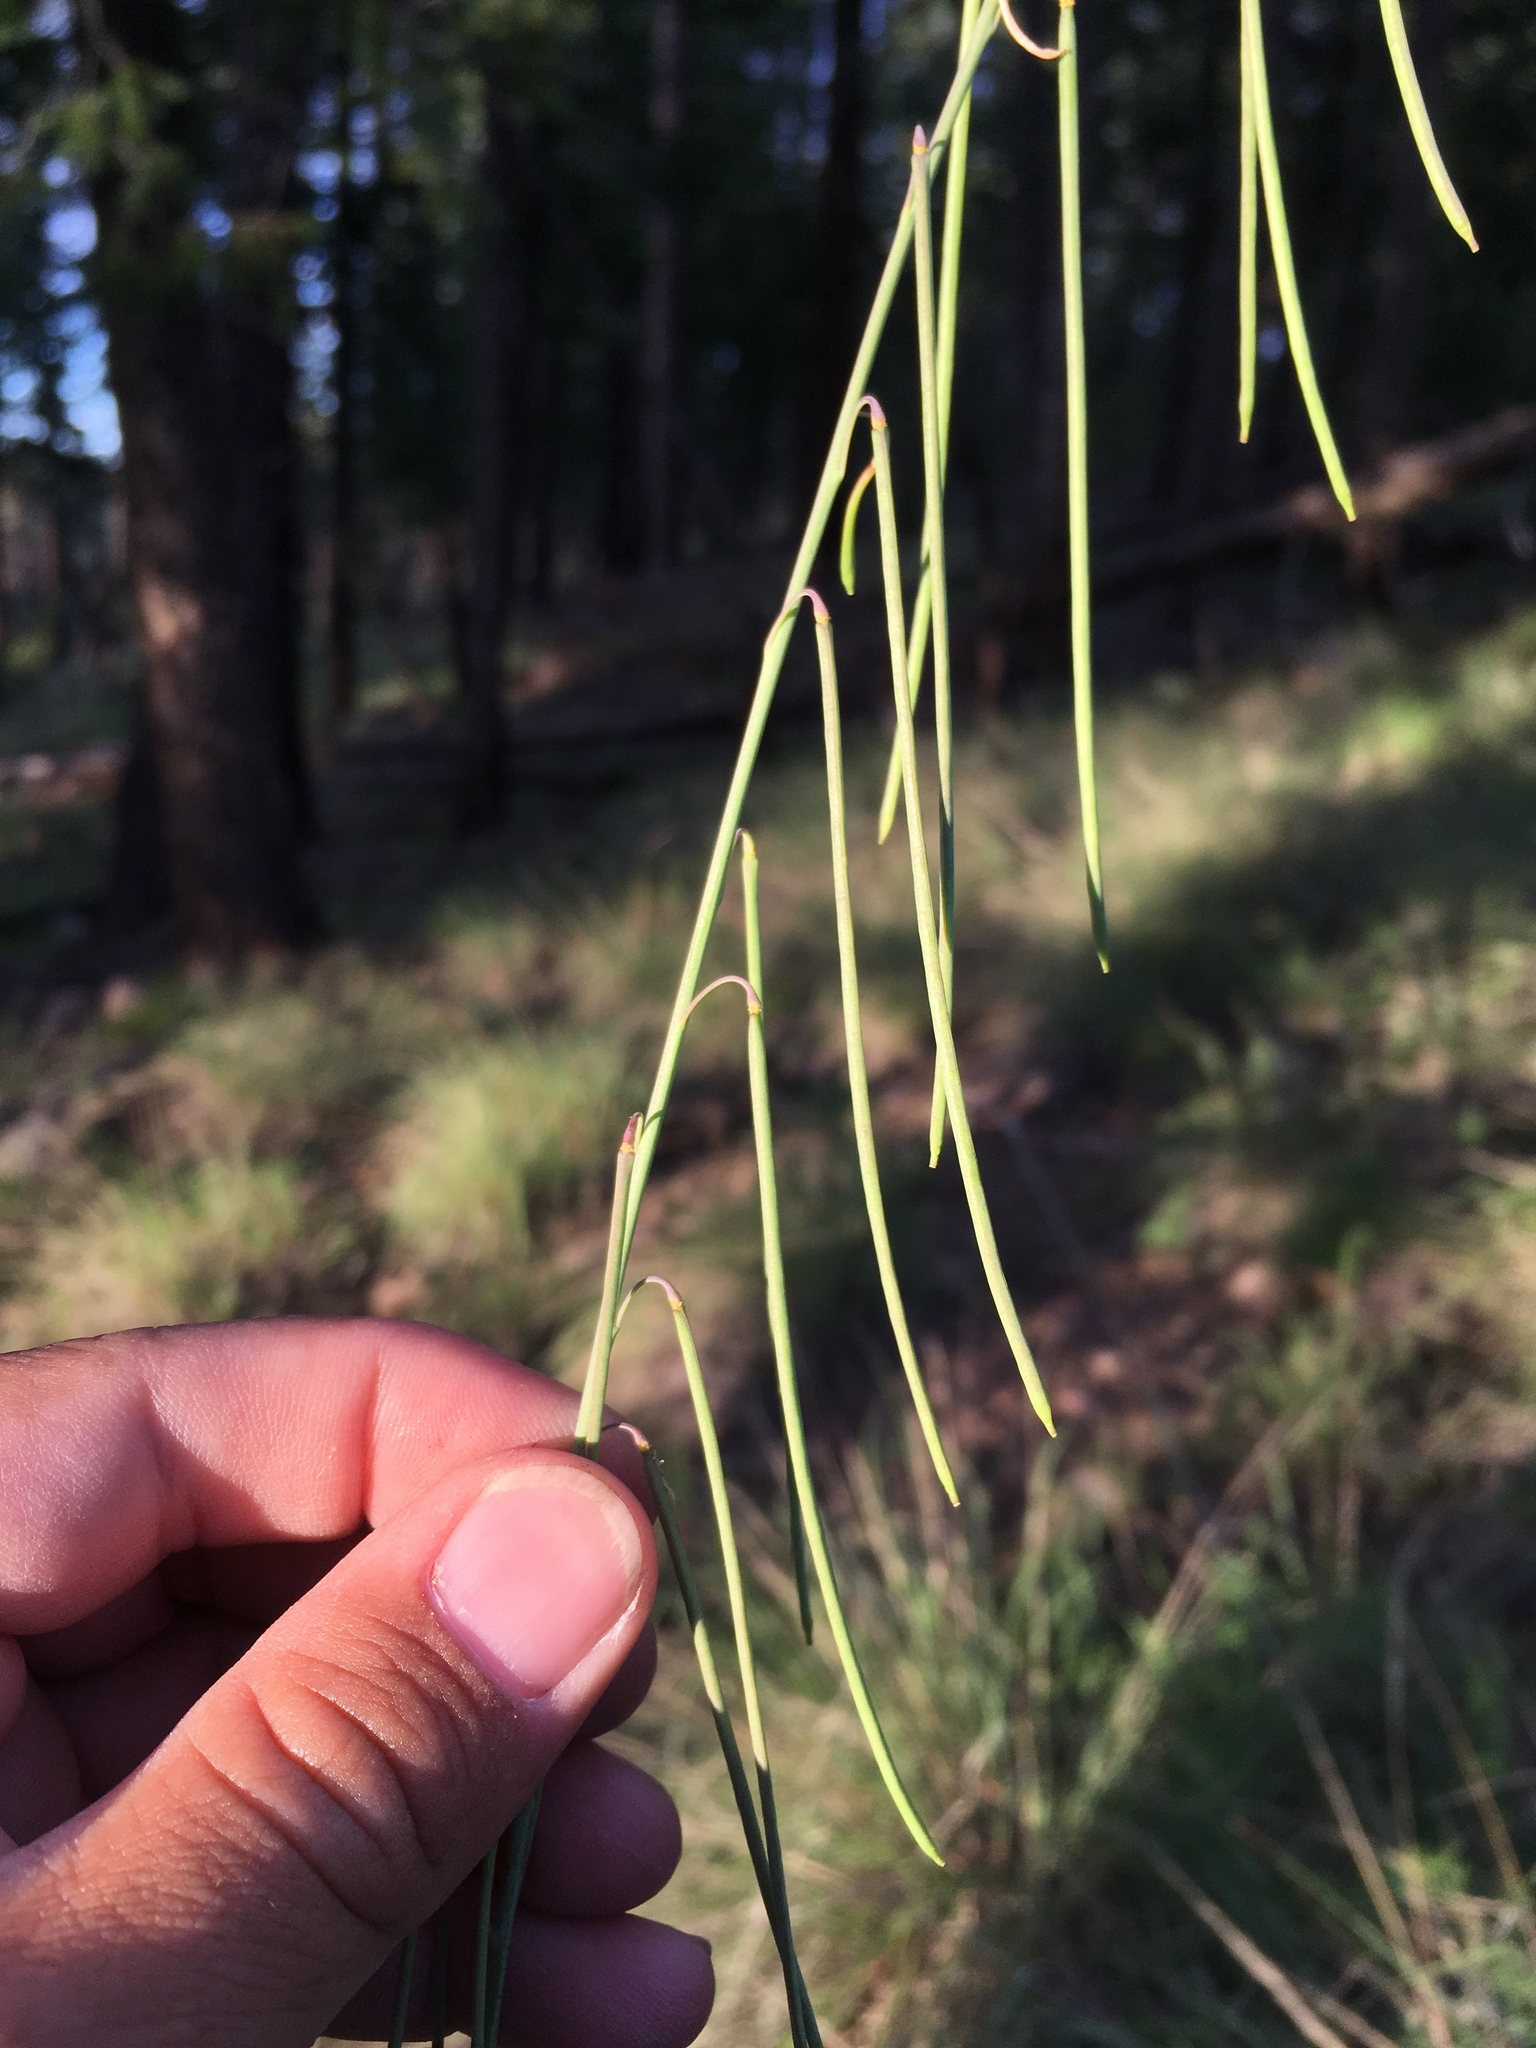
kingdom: Plantae
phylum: Tracheophyta
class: Magnoliopsida
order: Brassicales
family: Brassicaceae
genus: Pennellia
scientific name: Pennellia longifolia
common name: Longleaf mock thelypody
